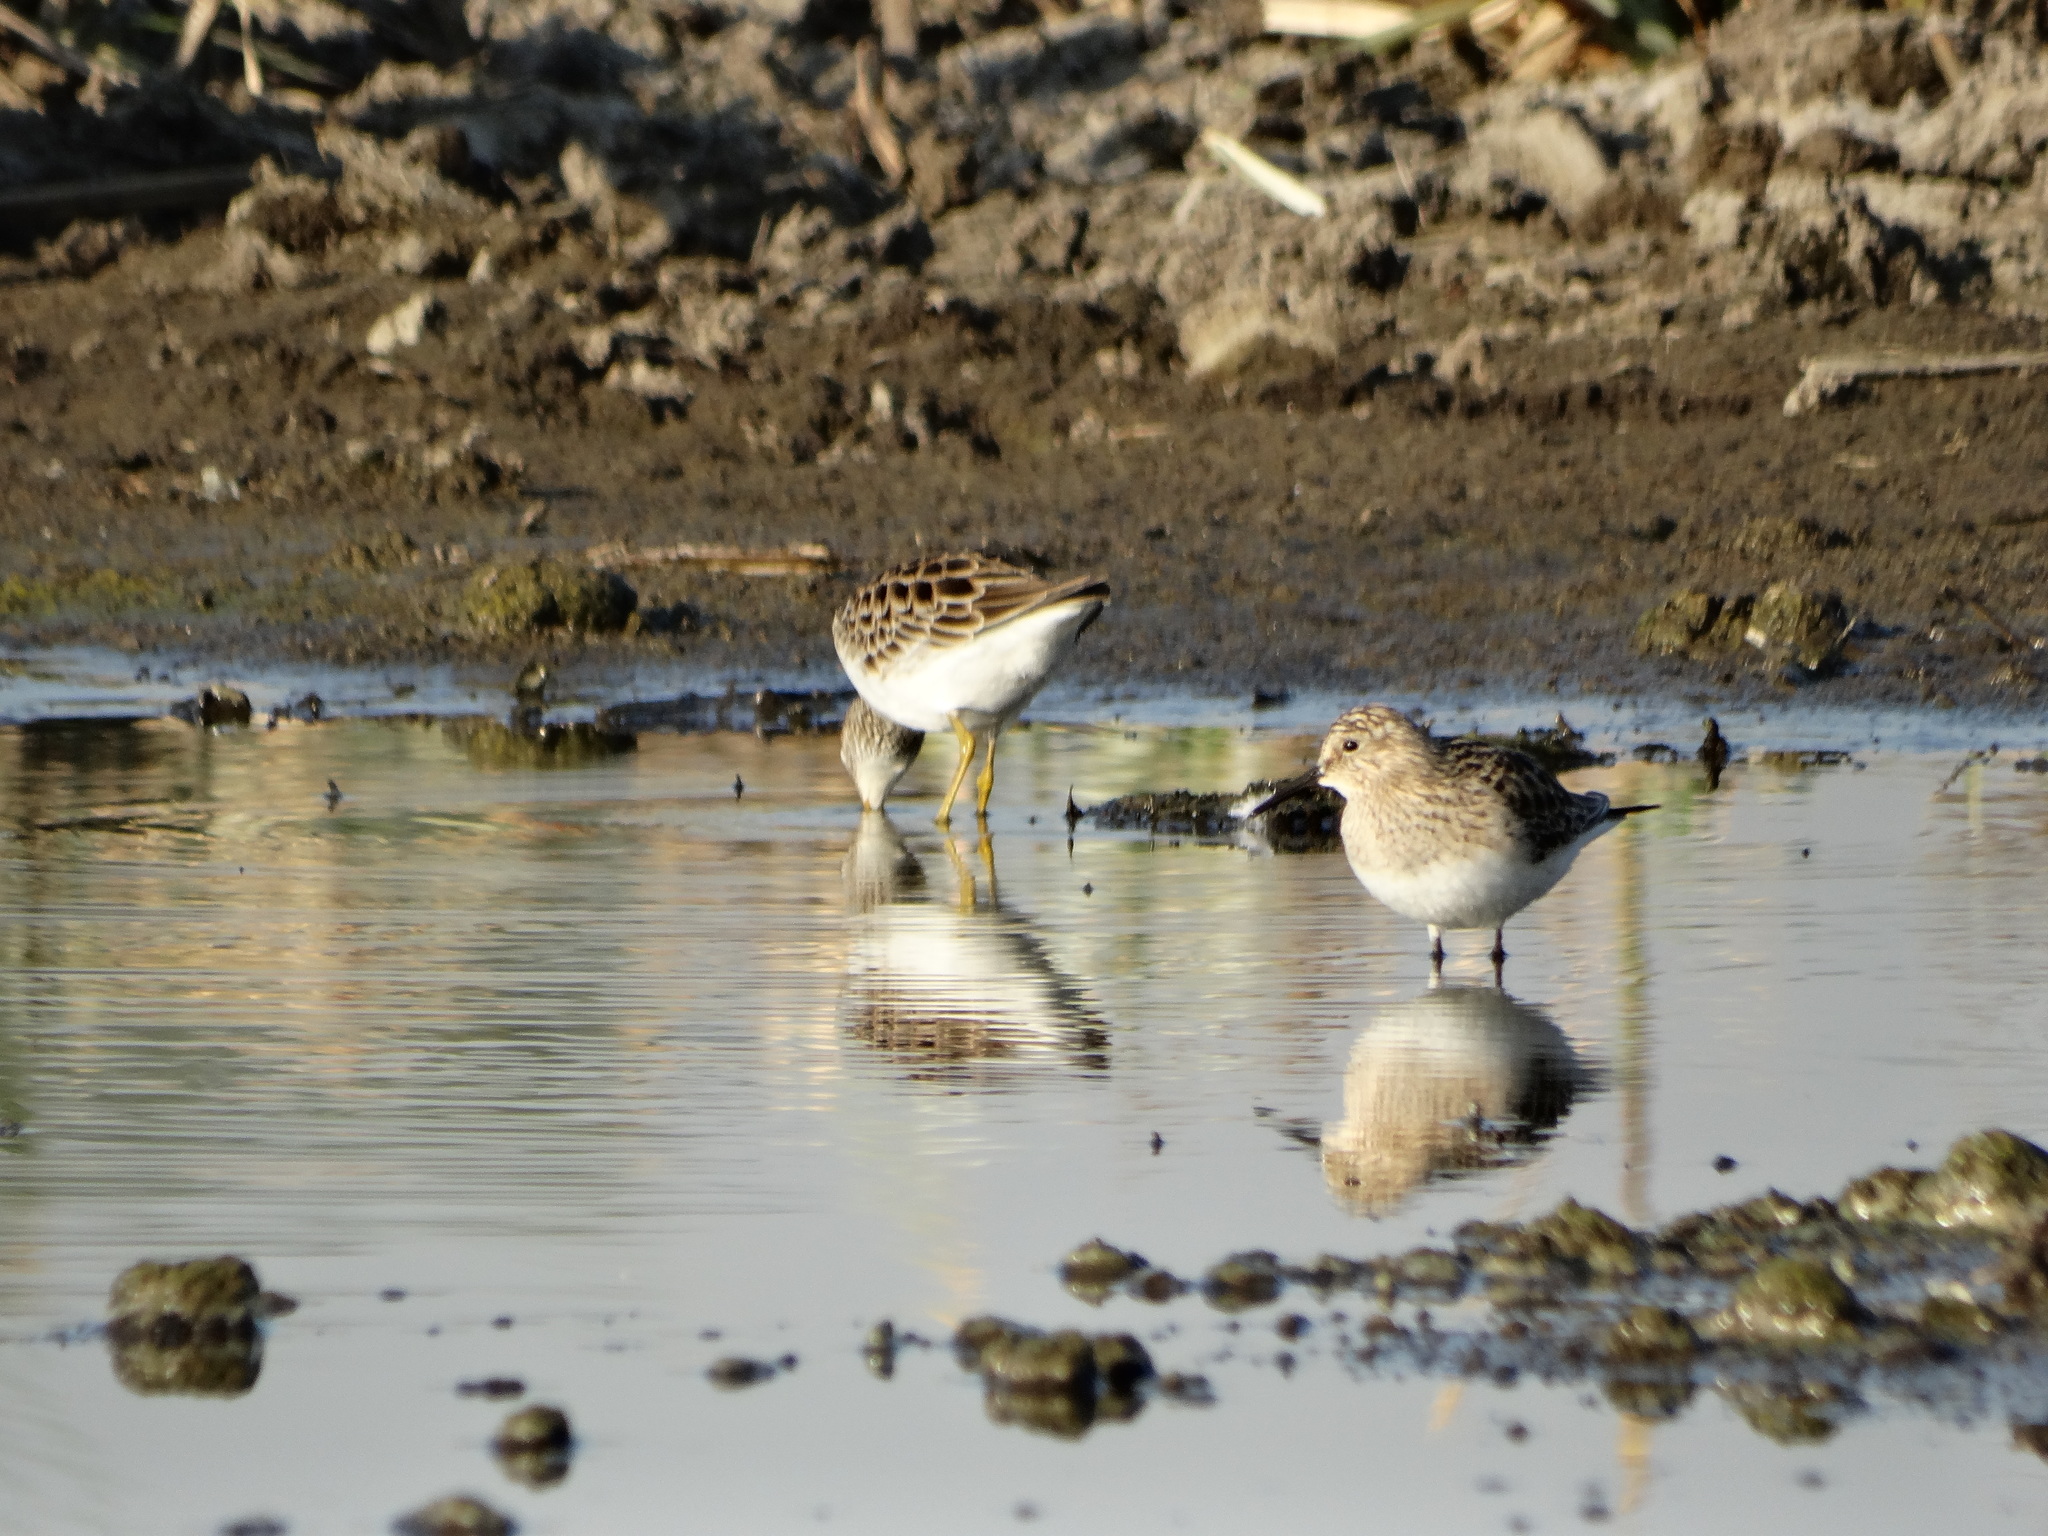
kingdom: Animalia
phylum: Chordata
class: Aves
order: Charadriiformes
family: Scolopacidae
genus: Calidris
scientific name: Calidris minutilla
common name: Least sandpiper
